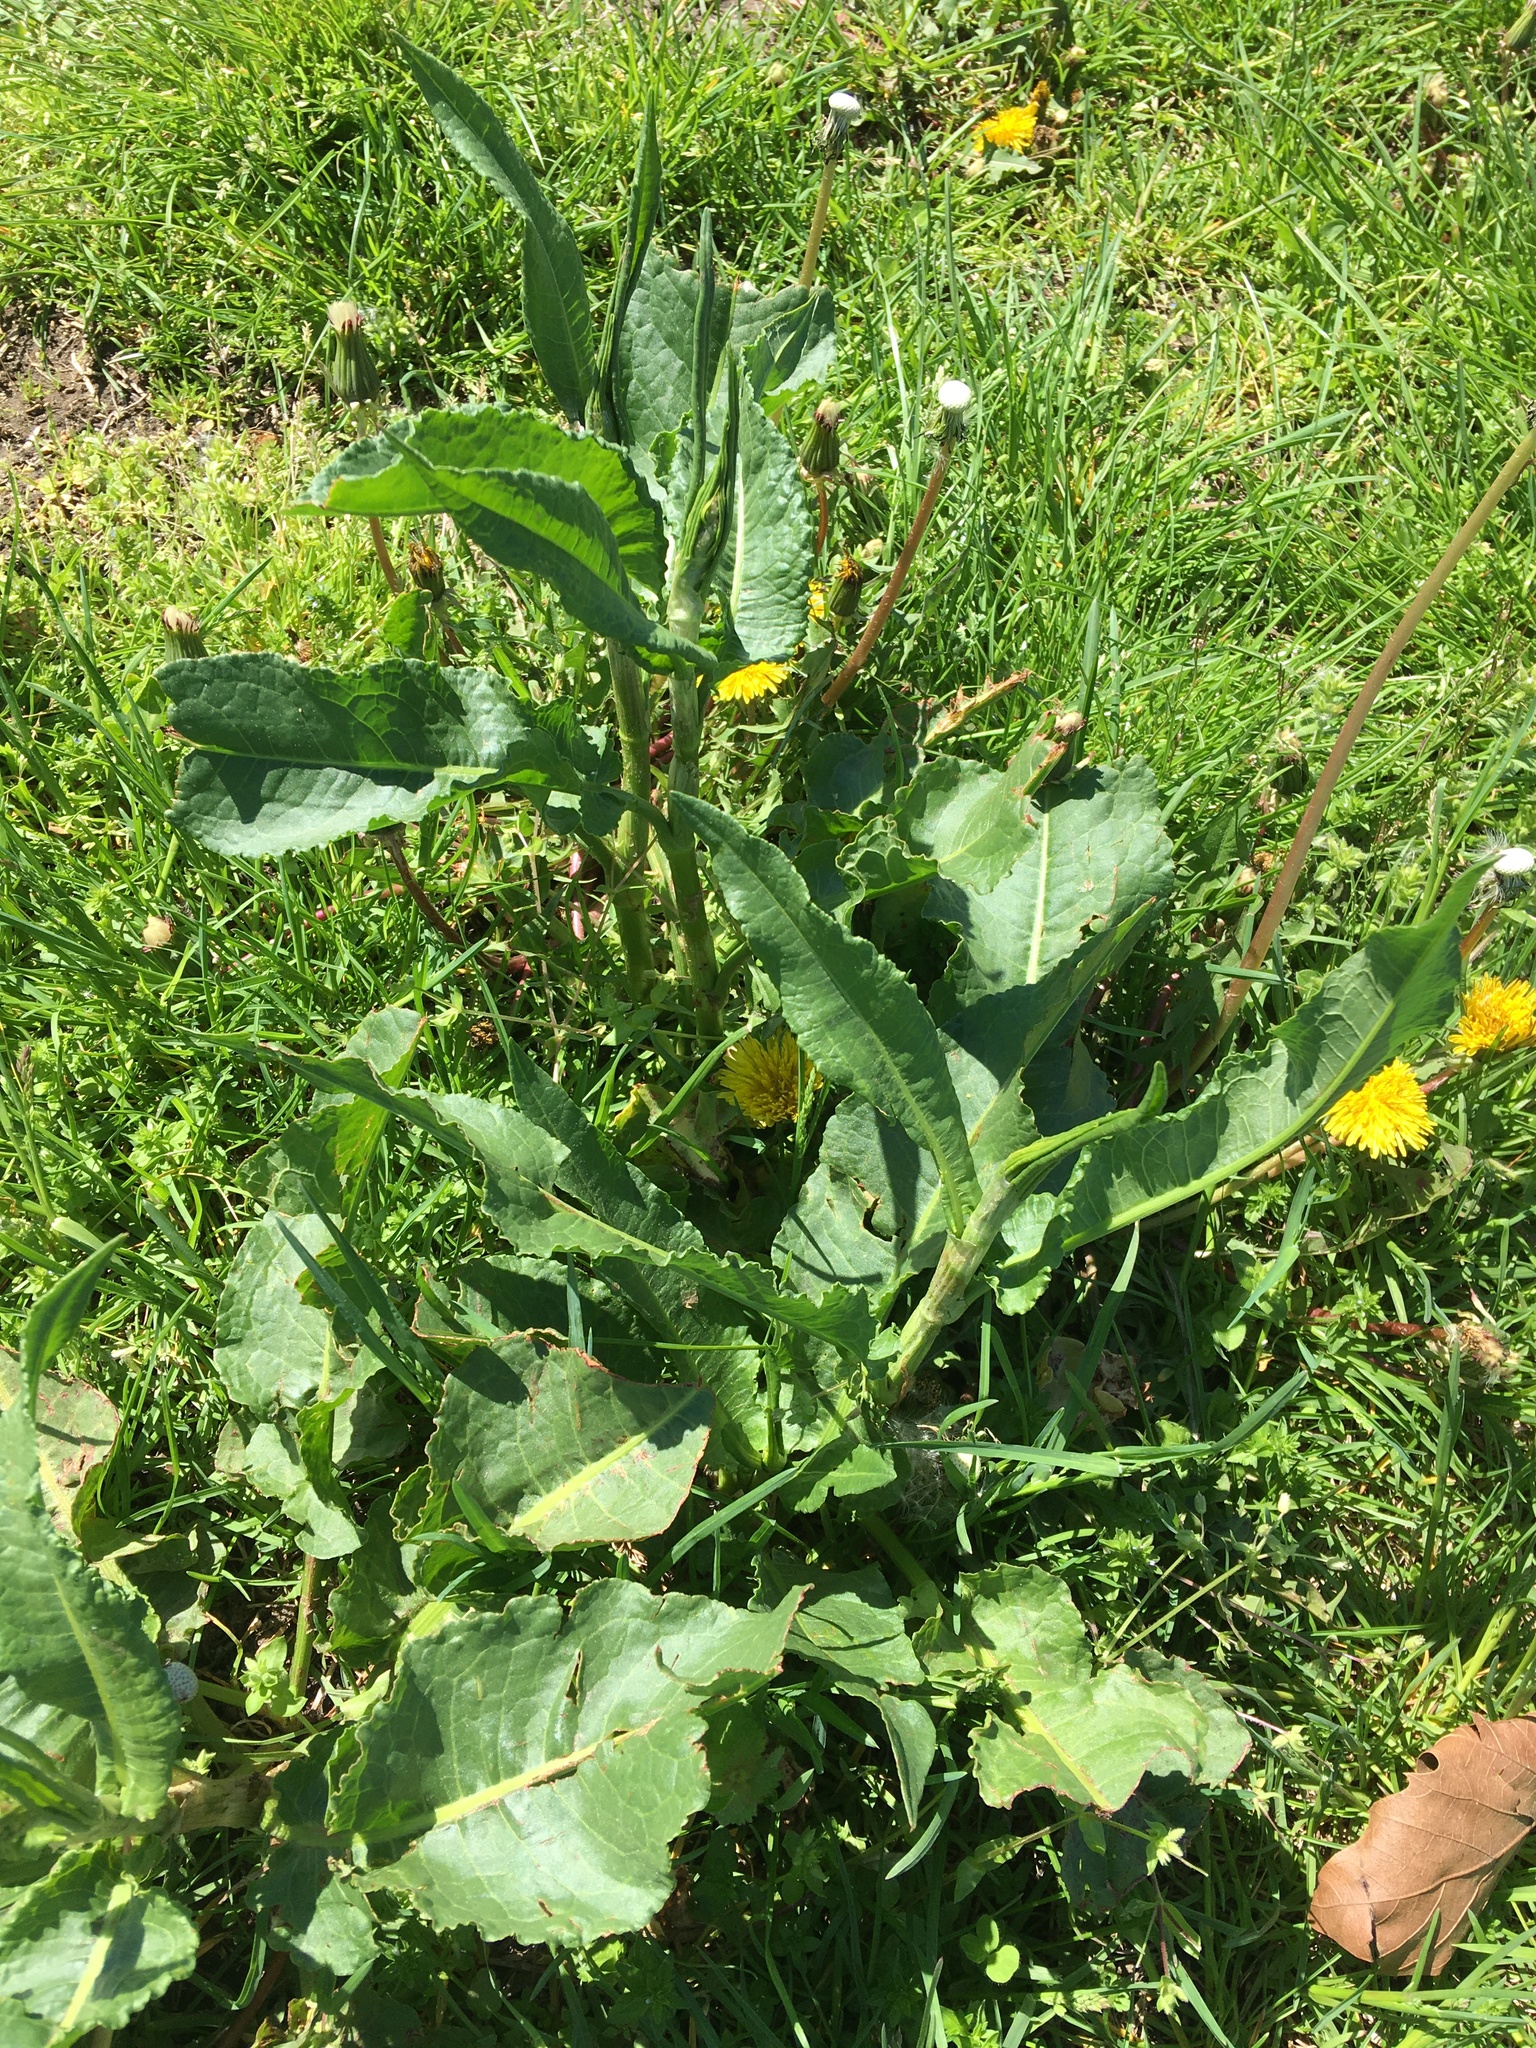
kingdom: Plantae
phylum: Tracheophyta
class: Magnoliopsida
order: Caryophyllales
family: Polygonaceae
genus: Rumex
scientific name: Rumex obtusifolius
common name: Bitter dock
